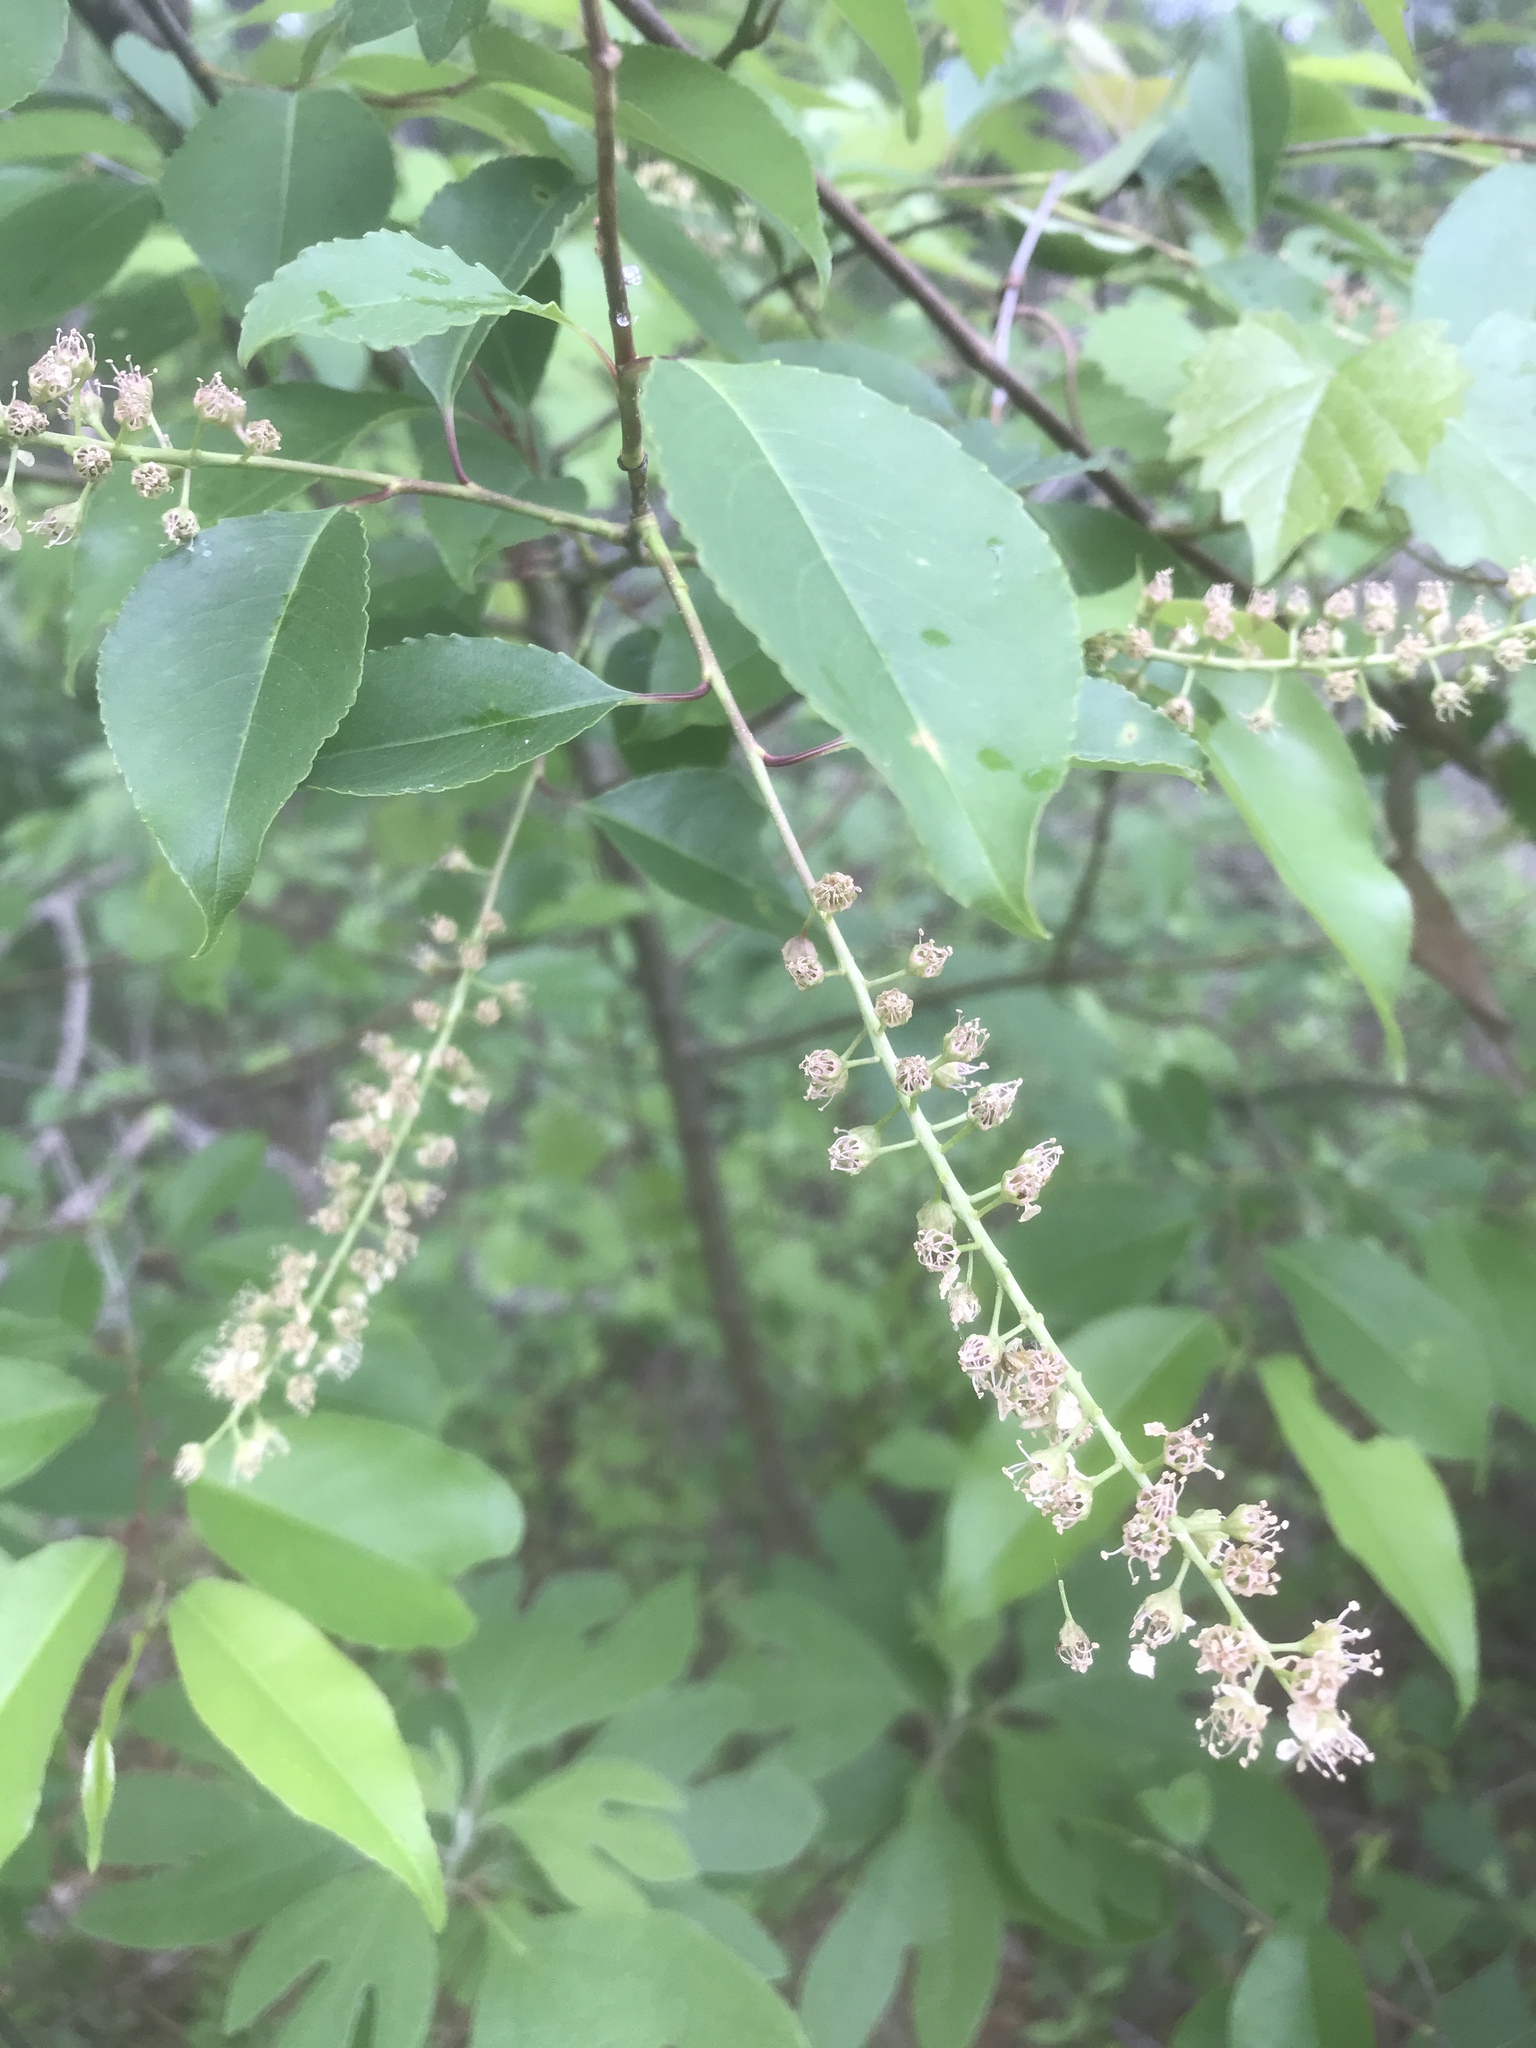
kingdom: Plantae
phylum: Tracheophyta
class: Magnoliopsida
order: Rosales
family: Rosaceae
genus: Prunus
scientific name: Prunus serotina
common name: Black cherry
